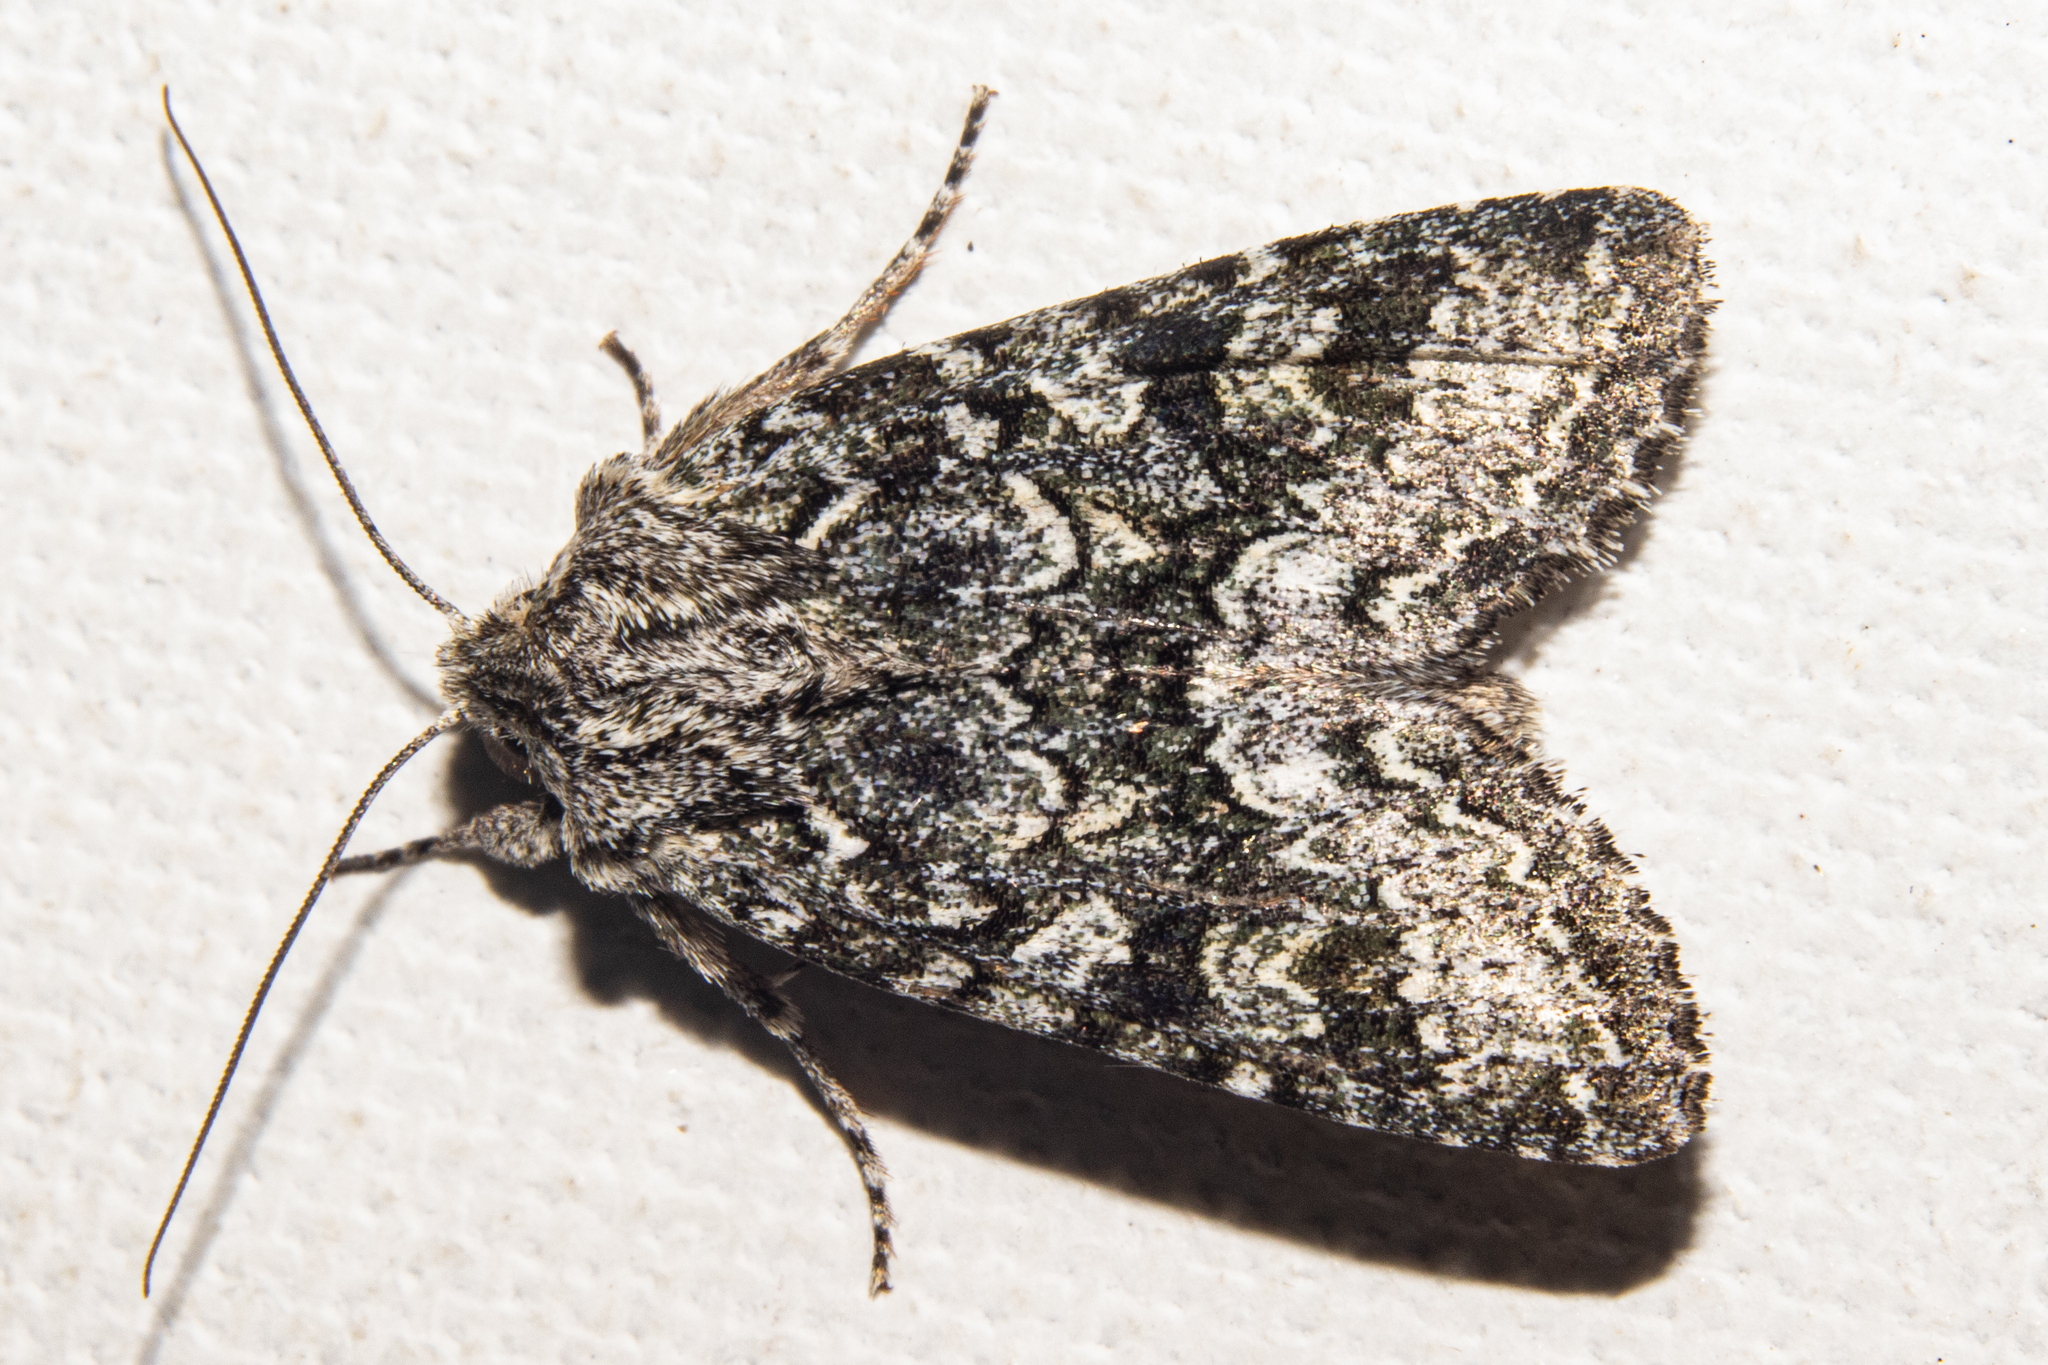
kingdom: Animalia
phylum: Arthropoda
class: Insecta
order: Lepidoptera
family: Noctuidae
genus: Ichneutica
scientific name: Ichneutica
